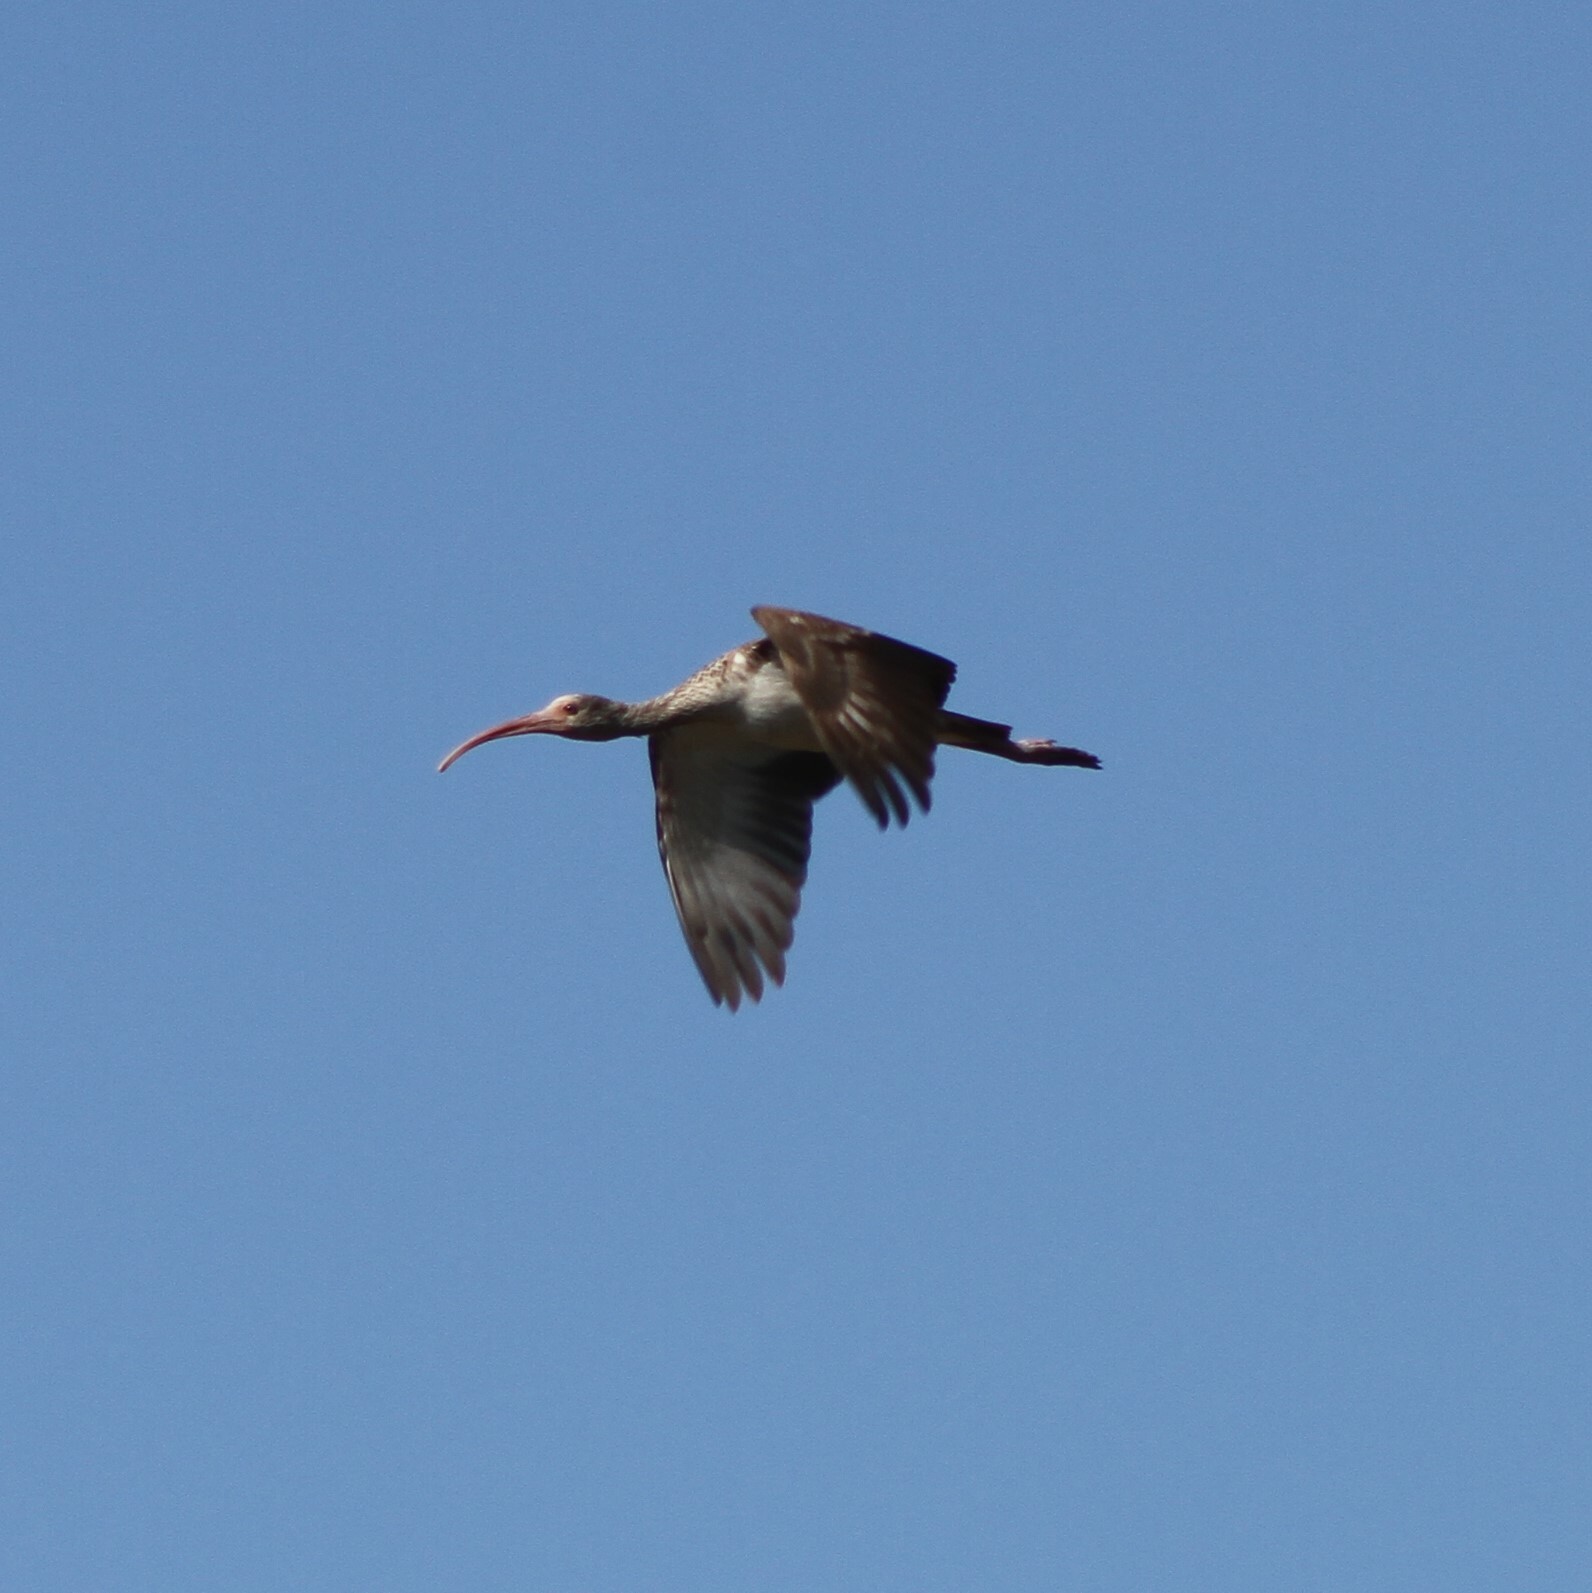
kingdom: Animalia
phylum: Chordata
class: Aves
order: Pelecaniformes
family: Threskiornithidae
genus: Eudocimus
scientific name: Eudocimus albus
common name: White ibis
